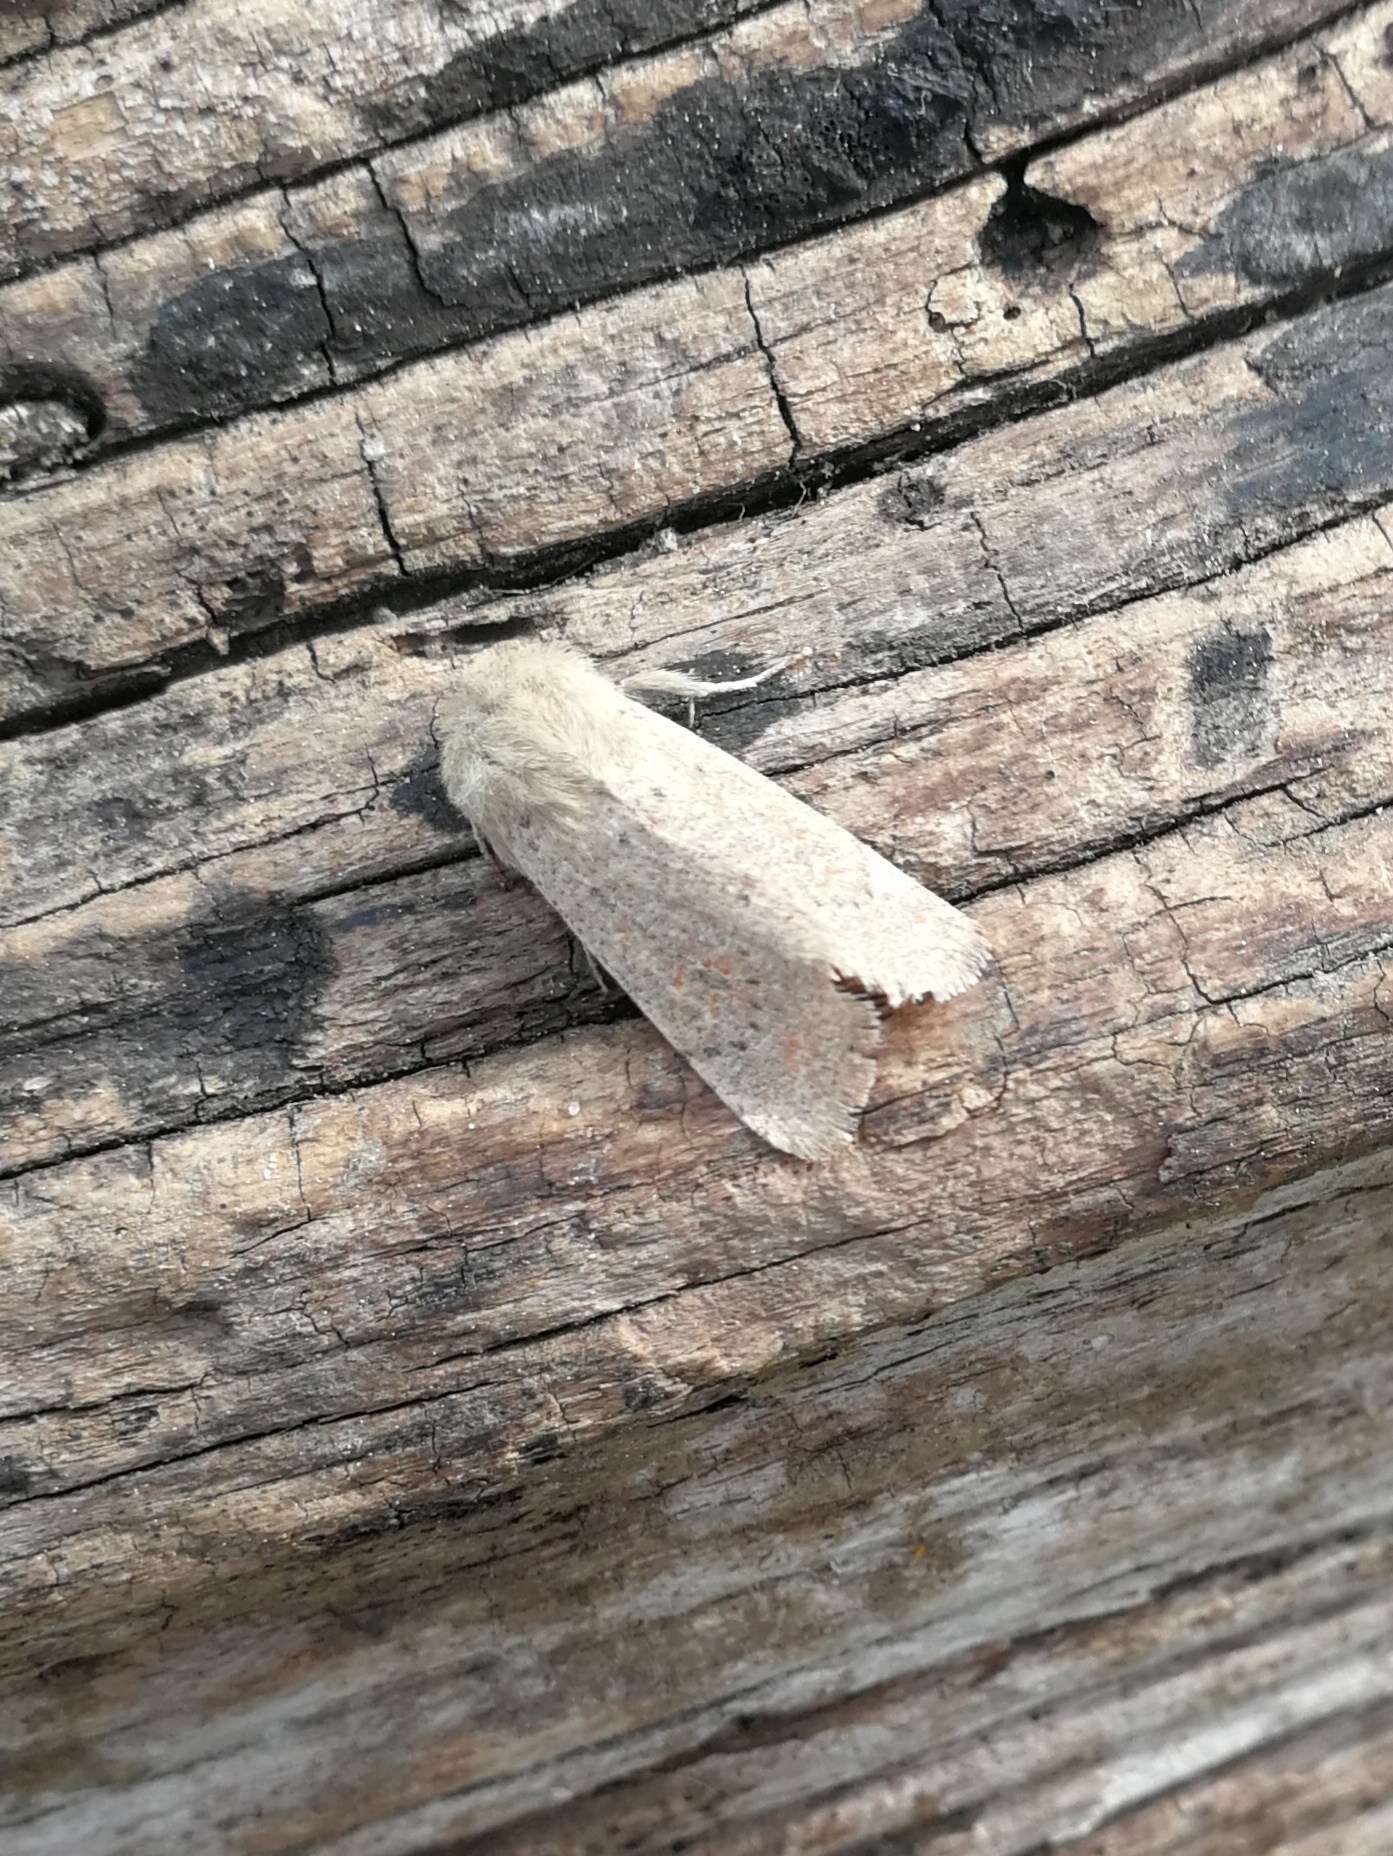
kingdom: Animalia
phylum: Arthropoda
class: Insecta
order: Lepidoptera
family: Noctuidae
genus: Orthosia
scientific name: Orthosia cruda
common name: Small quaker
